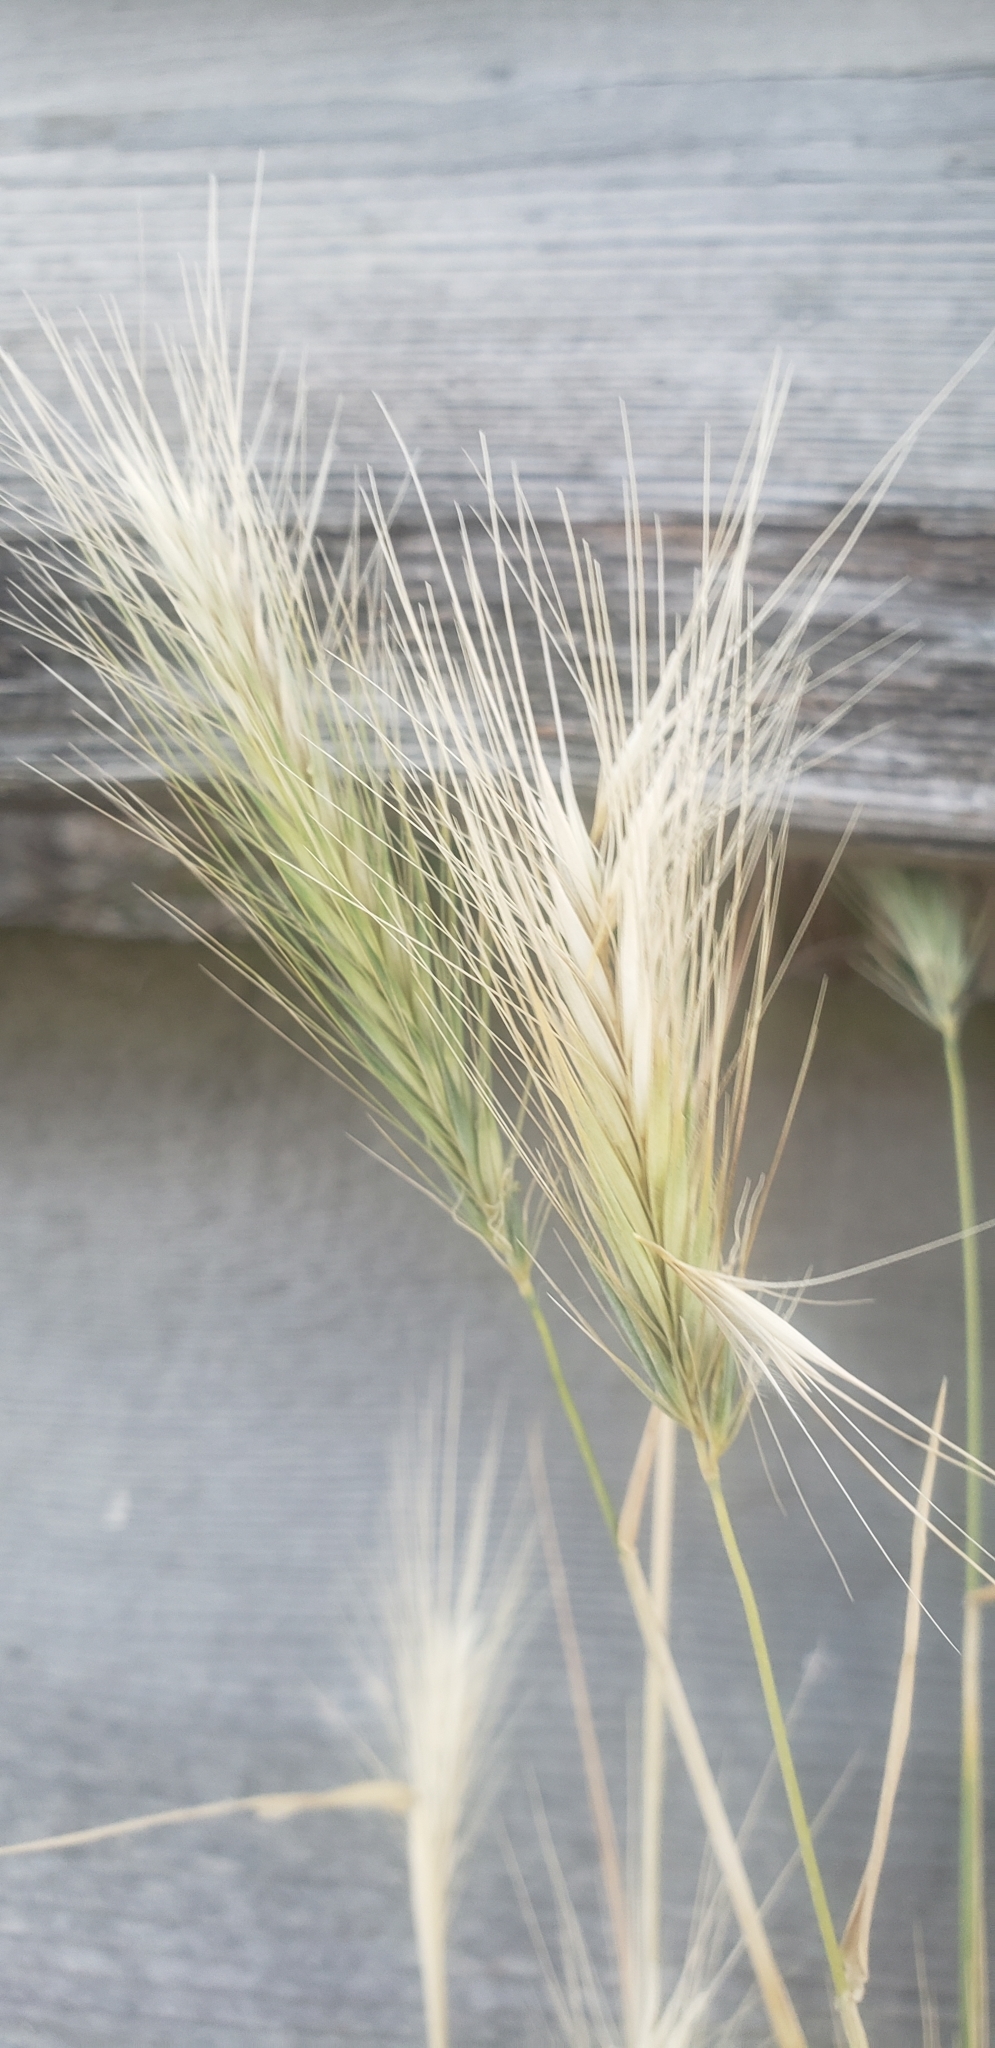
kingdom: Plantae
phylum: Tracheophyta
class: Liliopsida
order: Poales
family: Poaceae
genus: Hordeum
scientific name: Hordeum jubatum
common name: Foxtail barley
